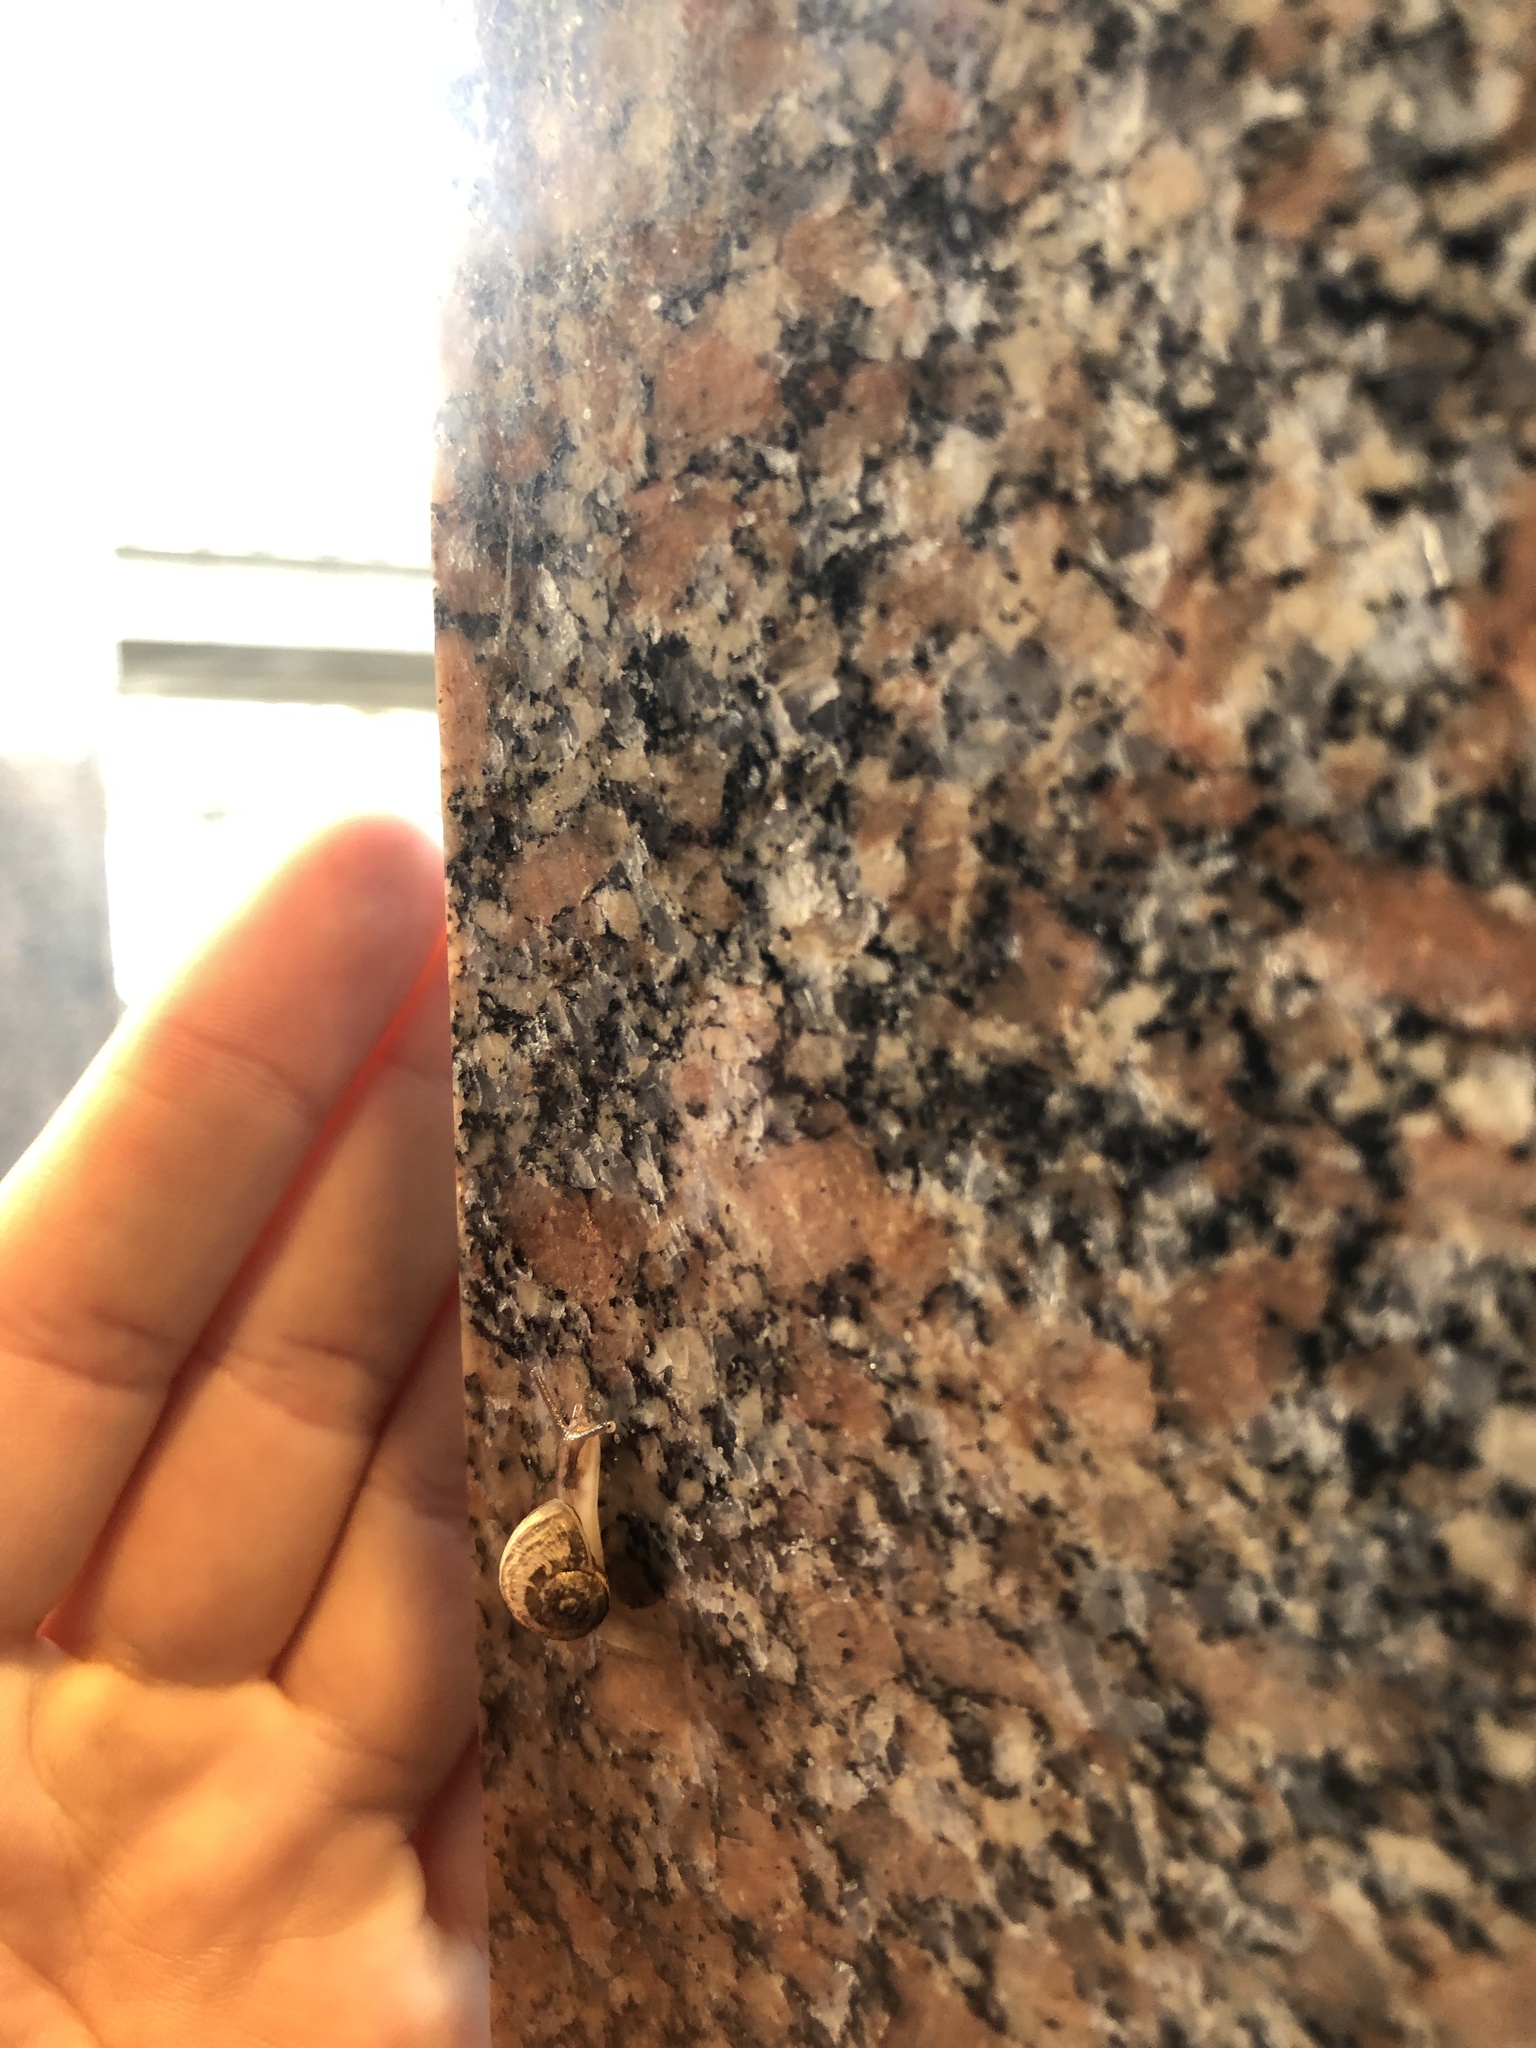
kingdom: Animalia
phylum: Mollusca
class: Gastropoda
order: Stylommatophora
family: Helicidae
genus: Cornu
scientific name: Cornu aspersum
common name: Brown garden snail
